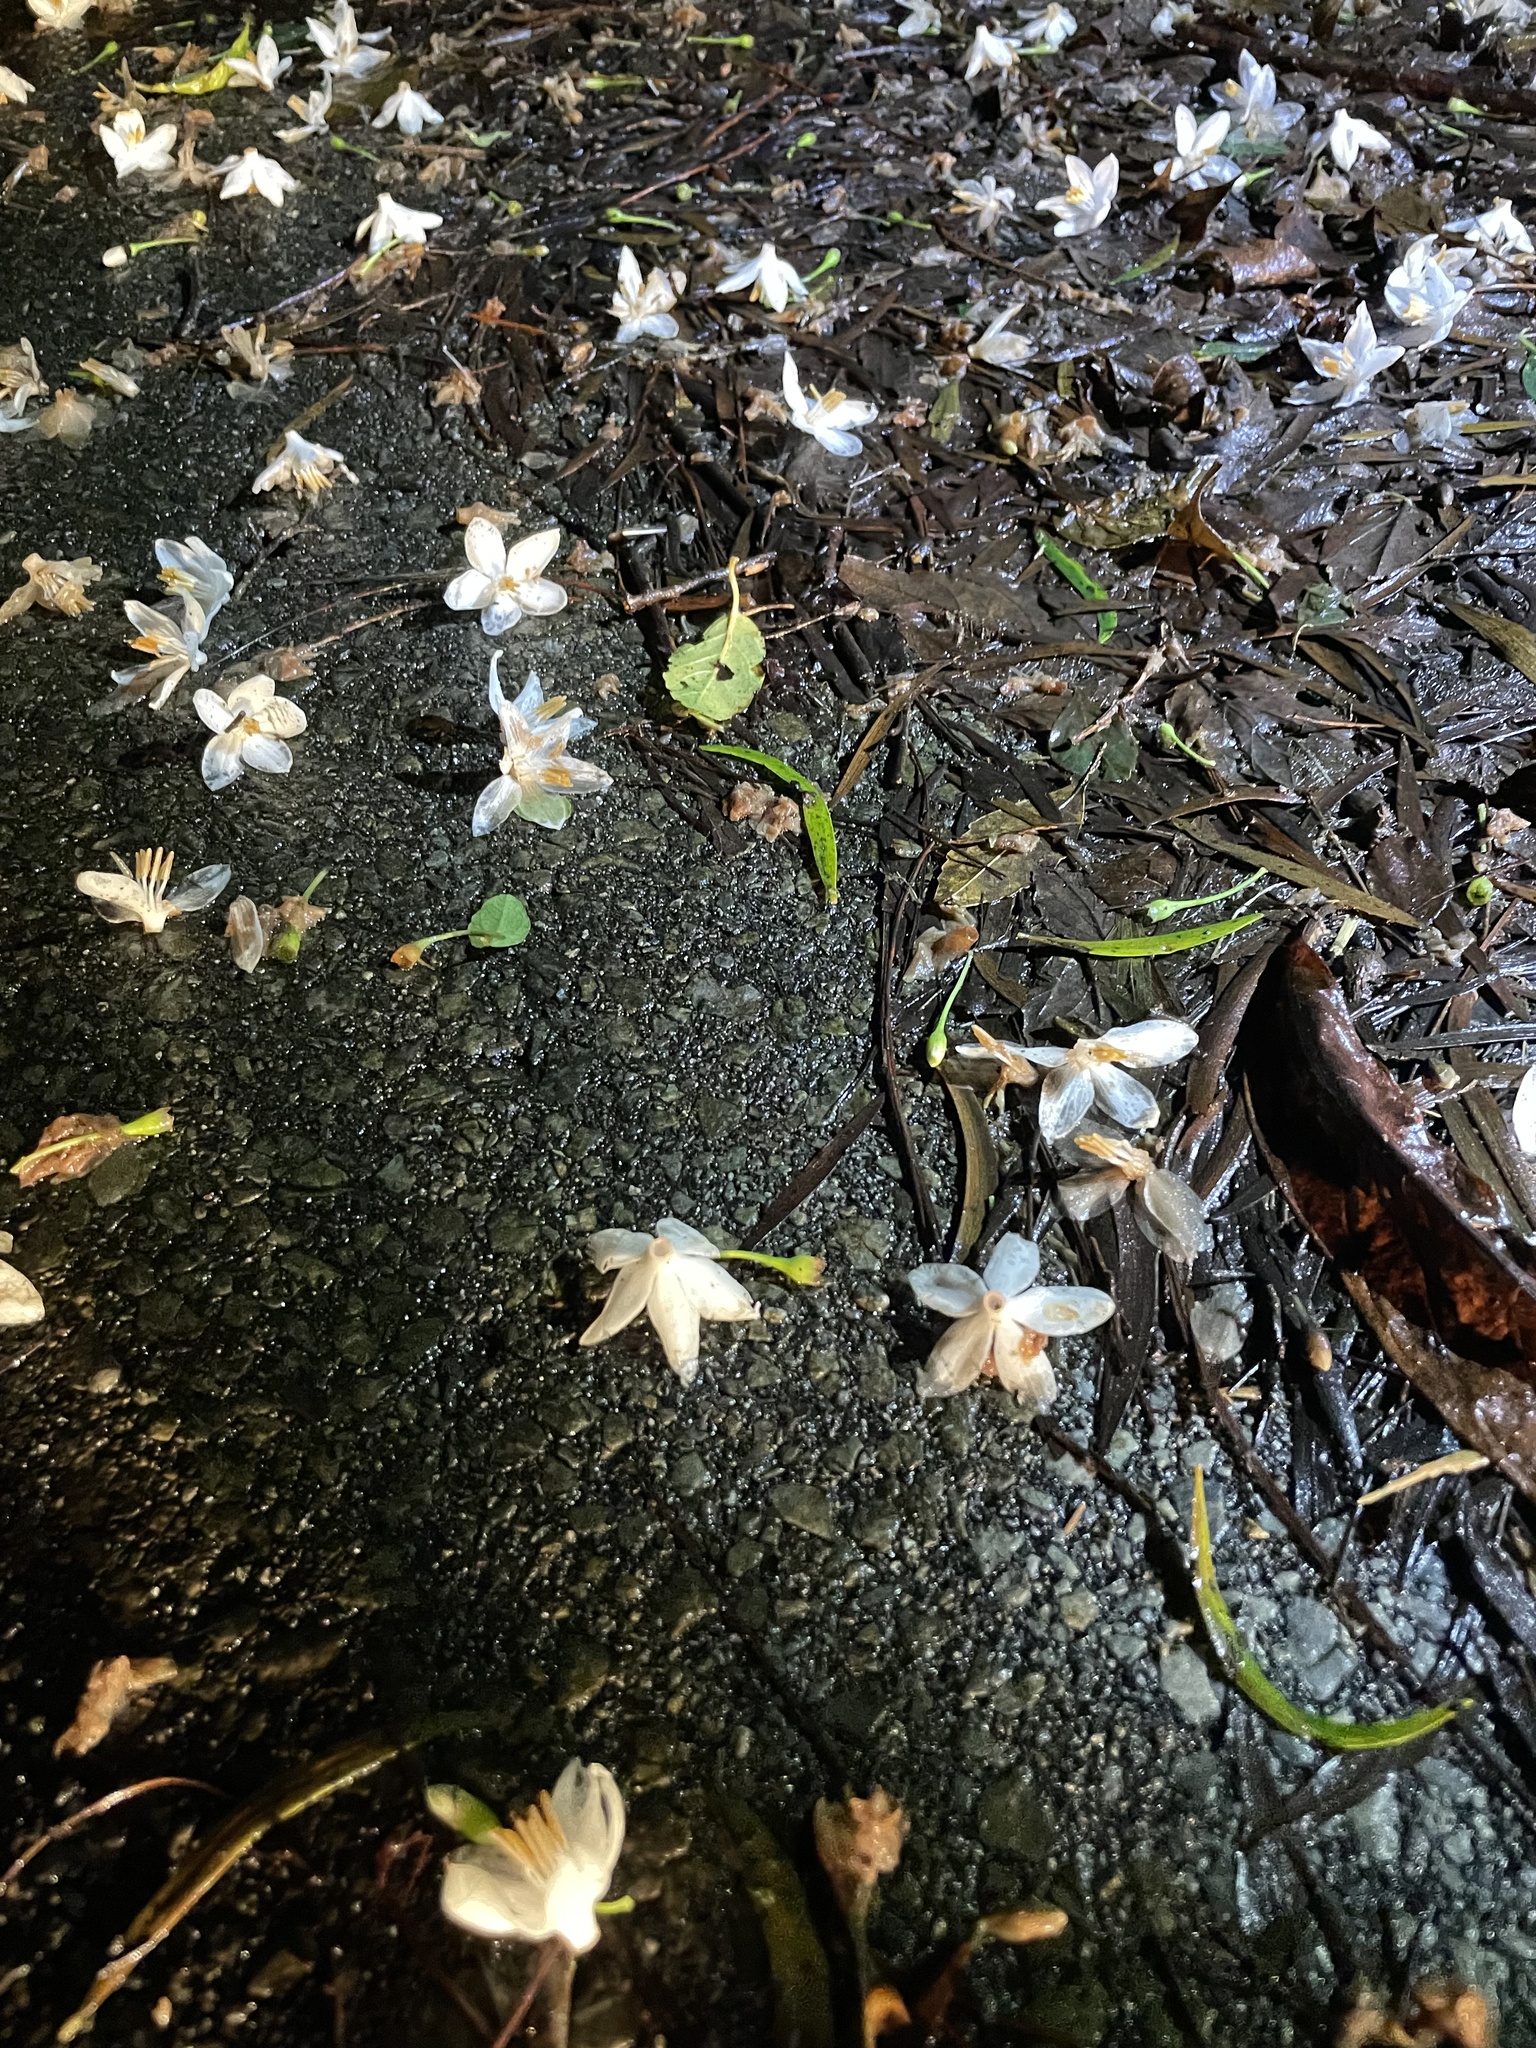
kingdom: Plantae
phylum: Tracheophyta
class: Magnoliopsida
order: Ericales
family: Styracaceae
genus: Styrax
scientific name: Styrax japonicus
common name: Japanese snowbell
